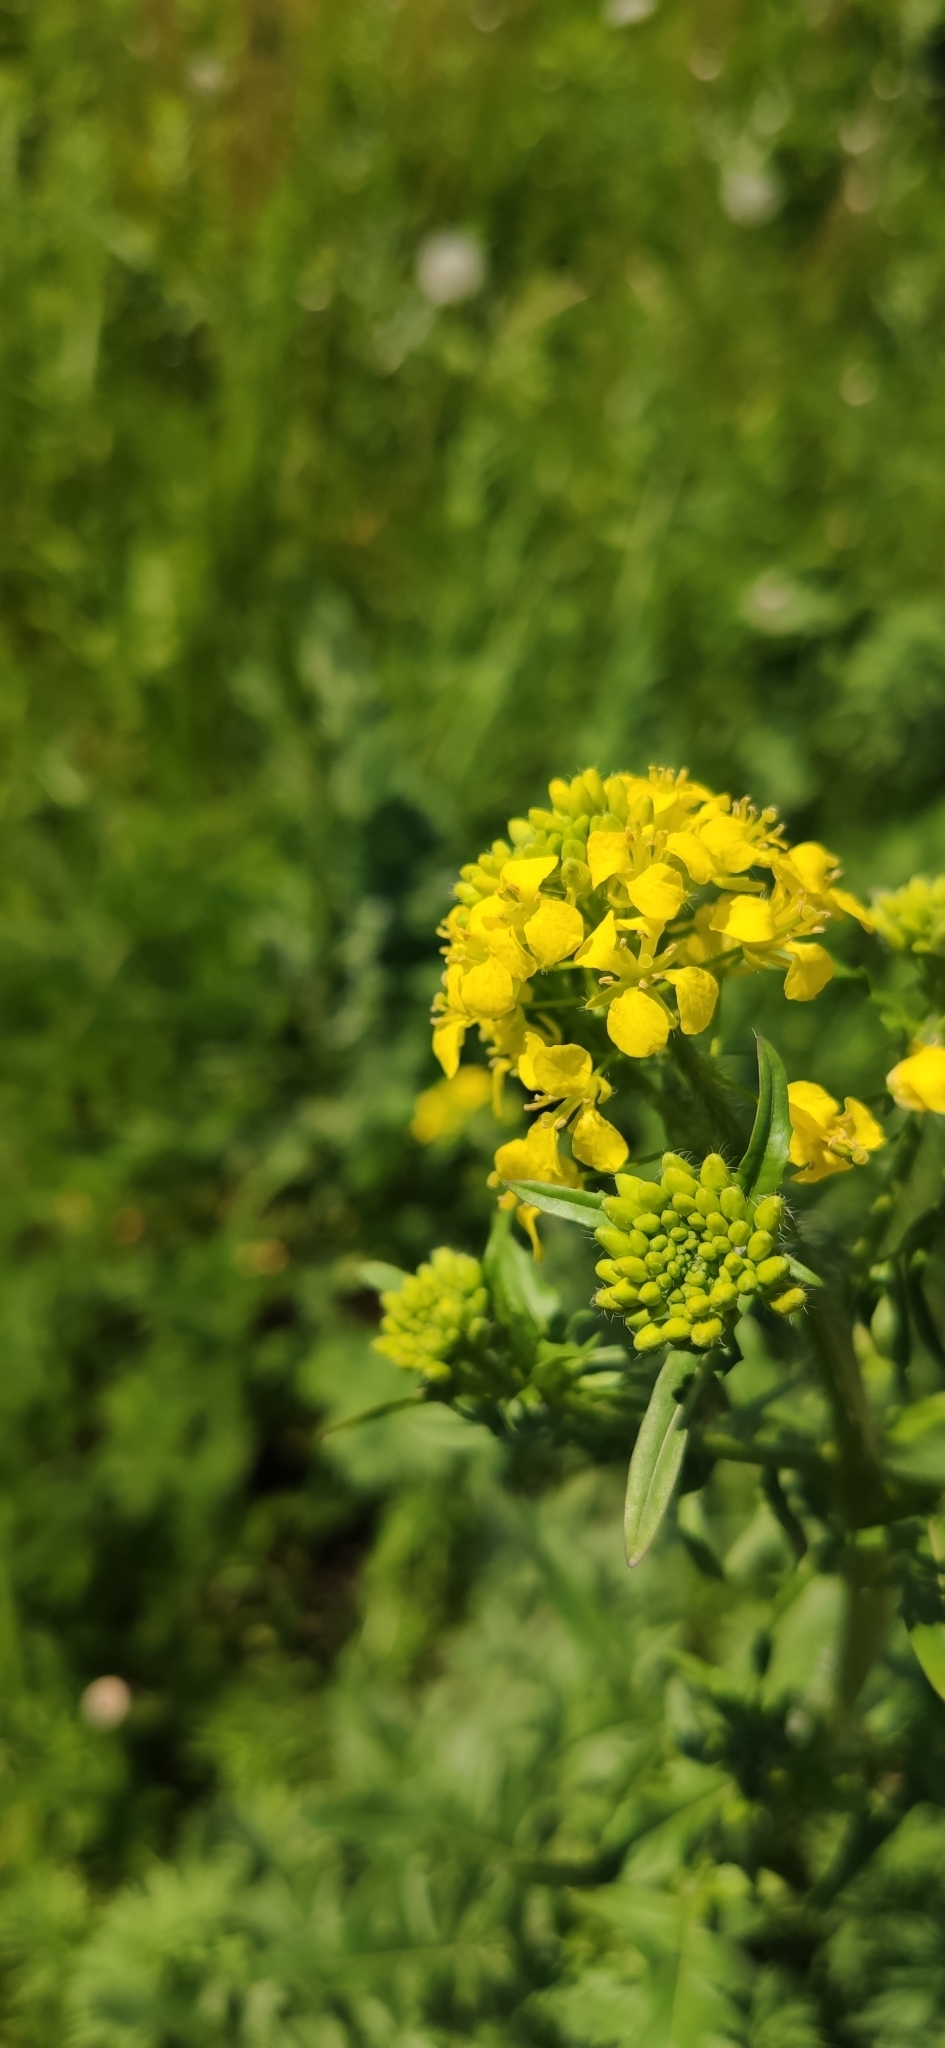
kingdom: Plantae
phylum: Tracheophyta
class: Magnoliopsida
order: Brassicales
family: Brassicaceae
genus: Sisymbrium
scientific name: Sisymbrium loeselii
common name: False london-rocket
